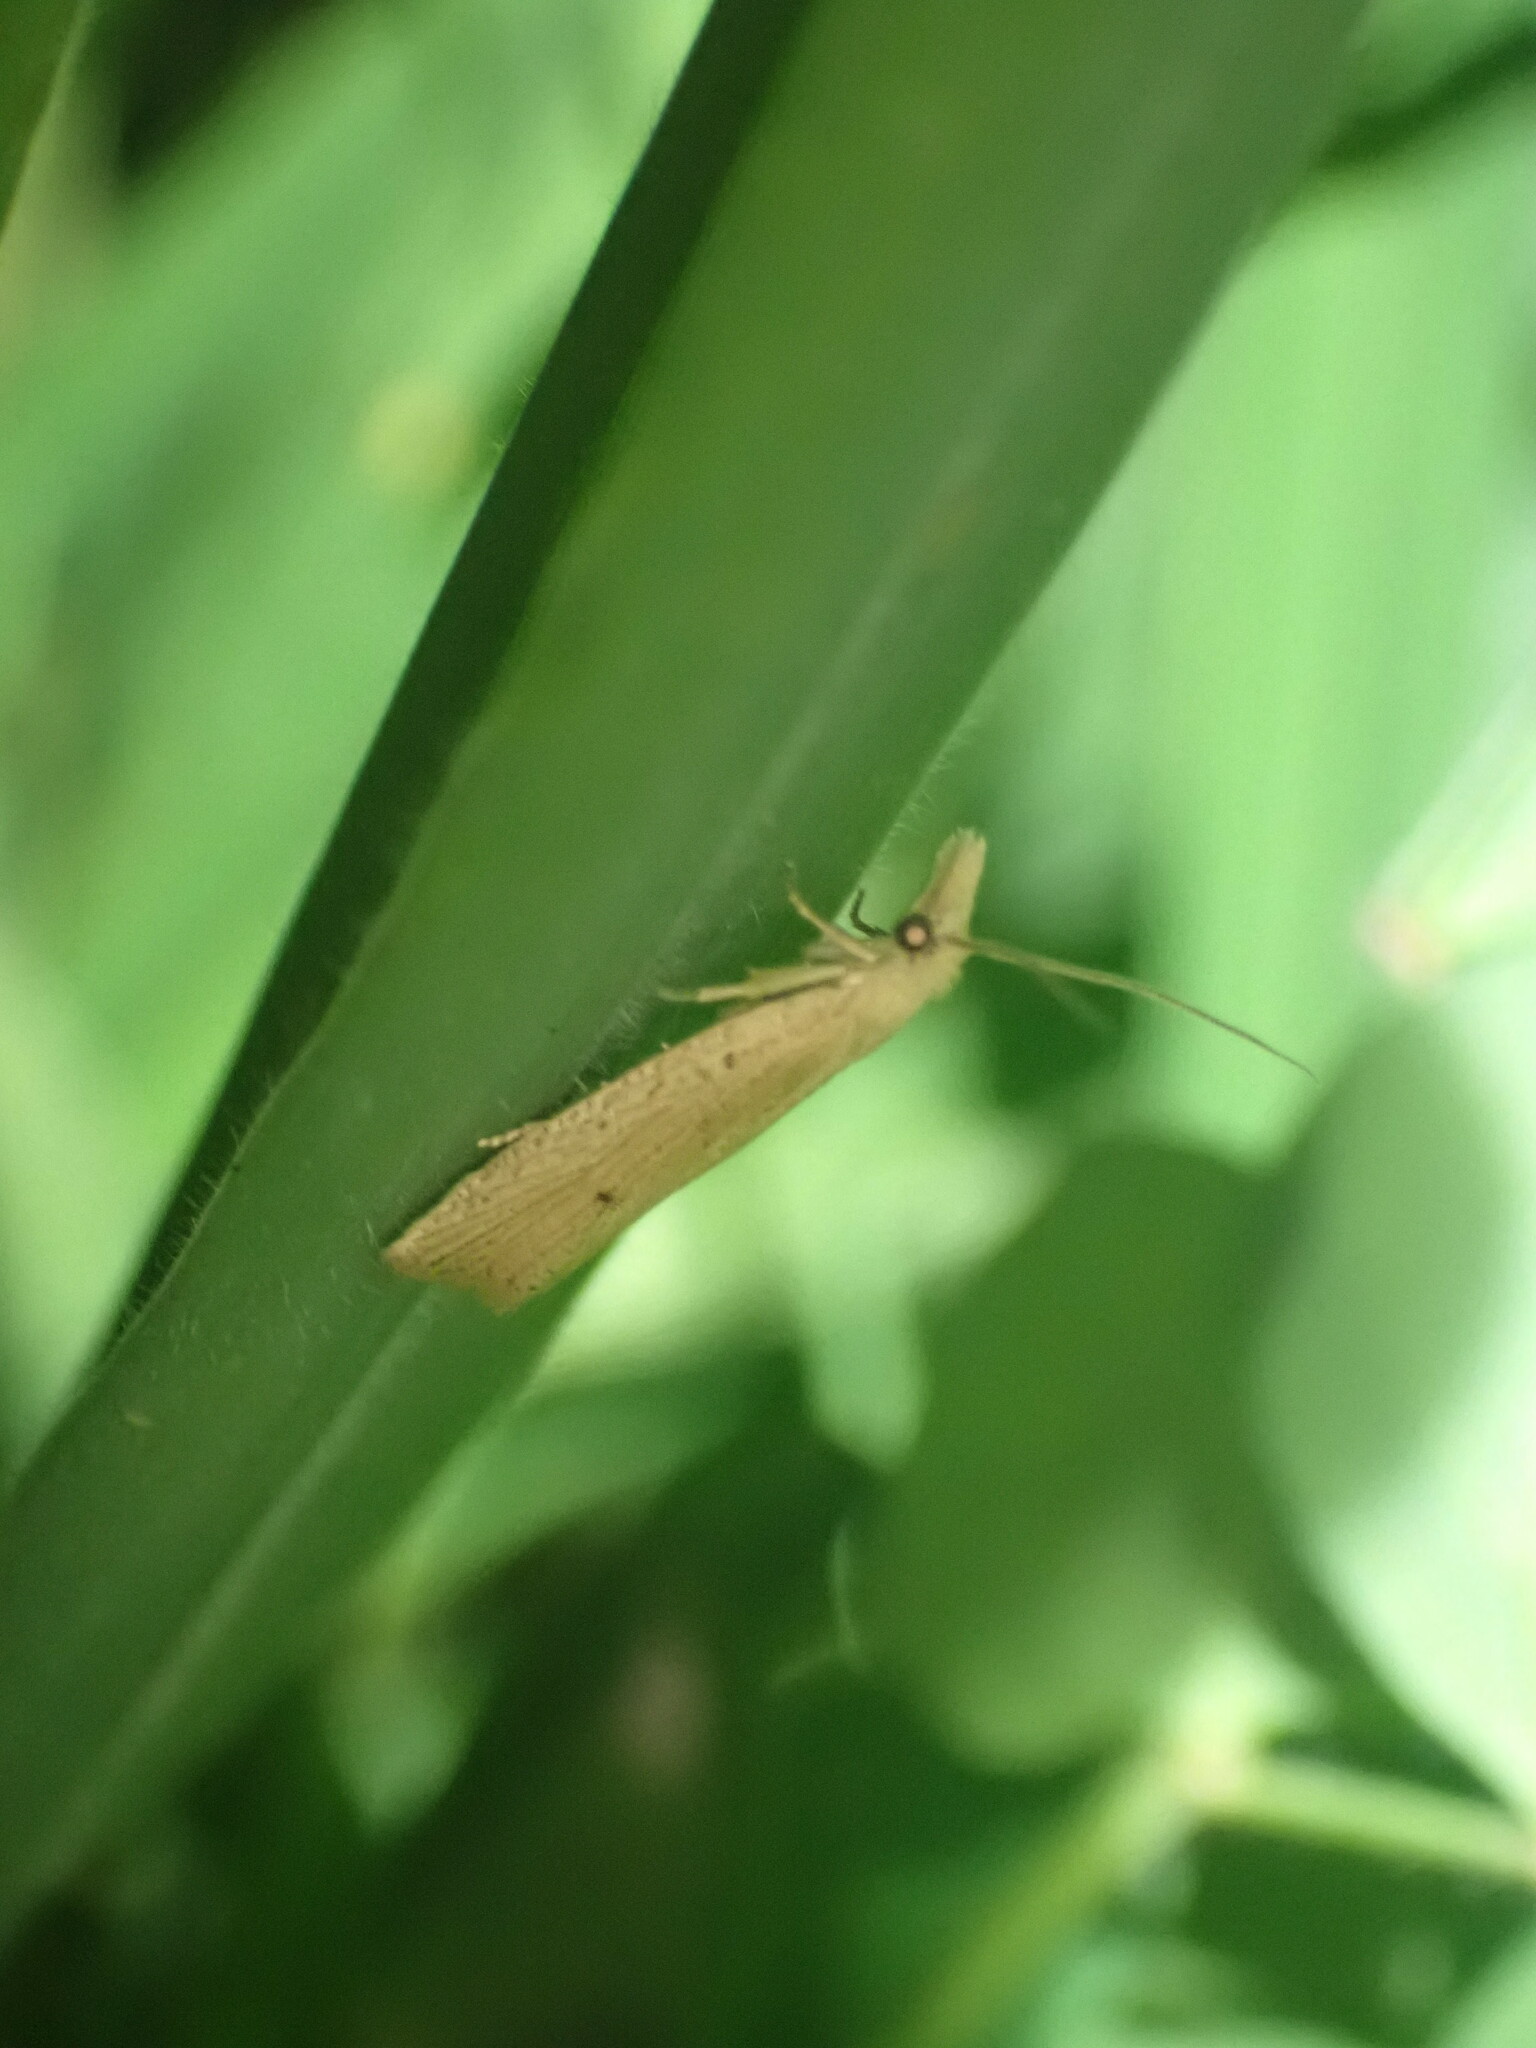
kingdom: Animalia
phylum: Arthropoda
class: Insecta
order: Lepidoptera
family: Tortricidae
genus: Bactra
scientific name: Bactra noteraula
